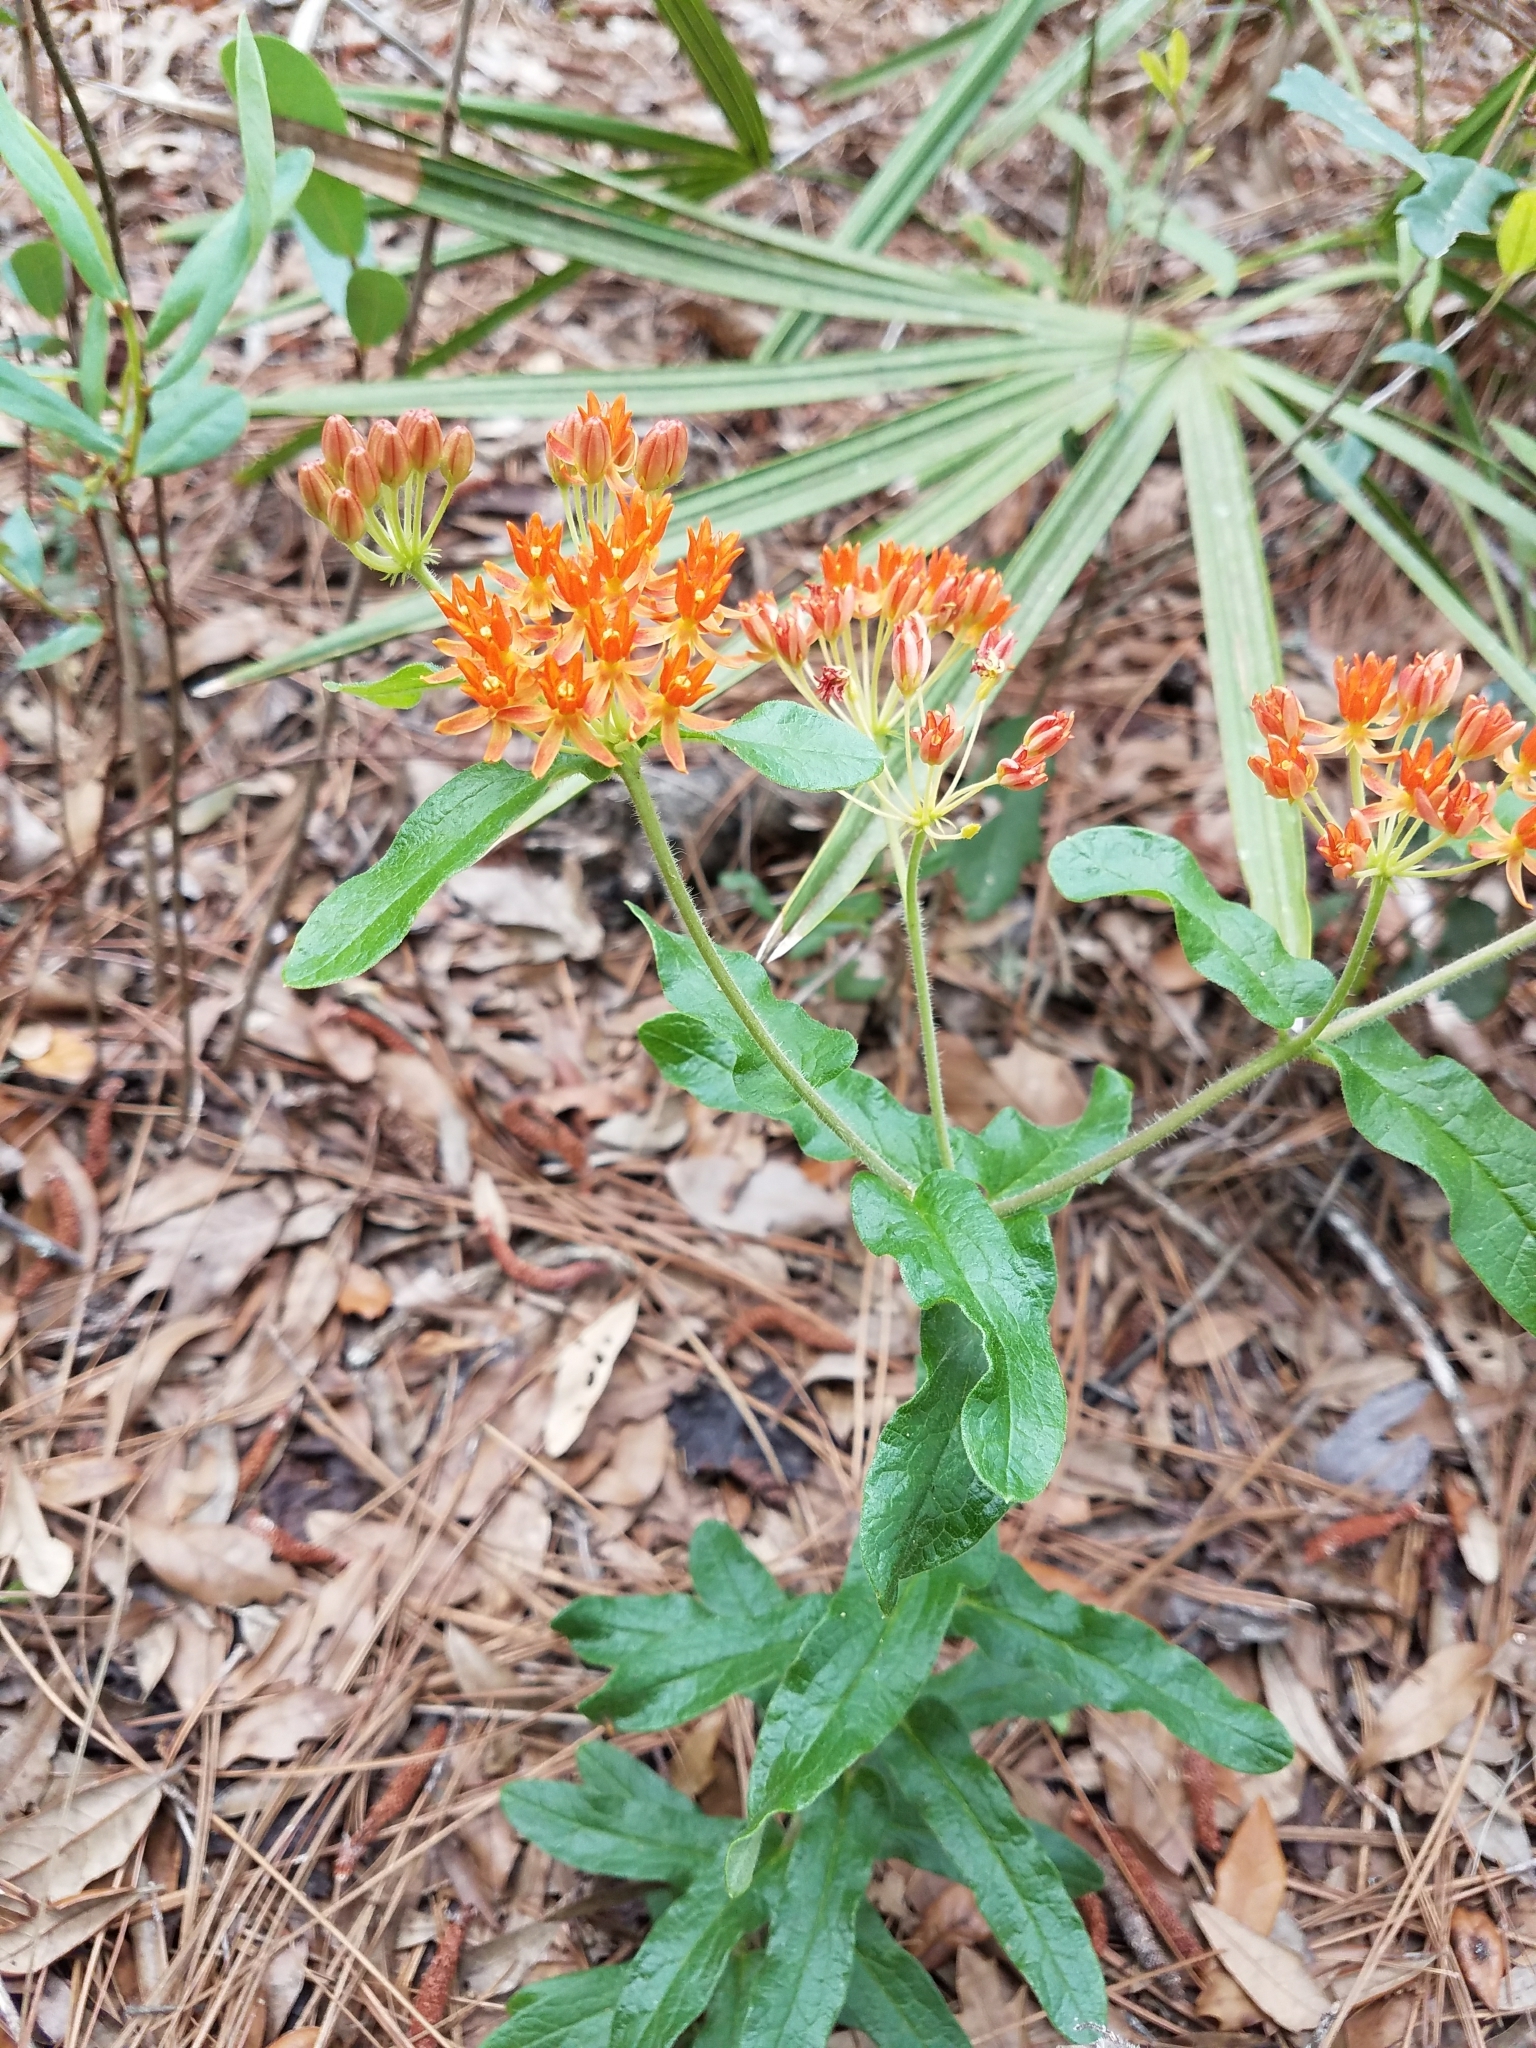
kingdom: Plantae
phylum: Tracheophyta
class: Magnoliopsida
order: Gentianales
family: Apocynaceae
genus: Asclepias
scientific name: Asclepias tuberosa
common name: Butterfly milkweed
